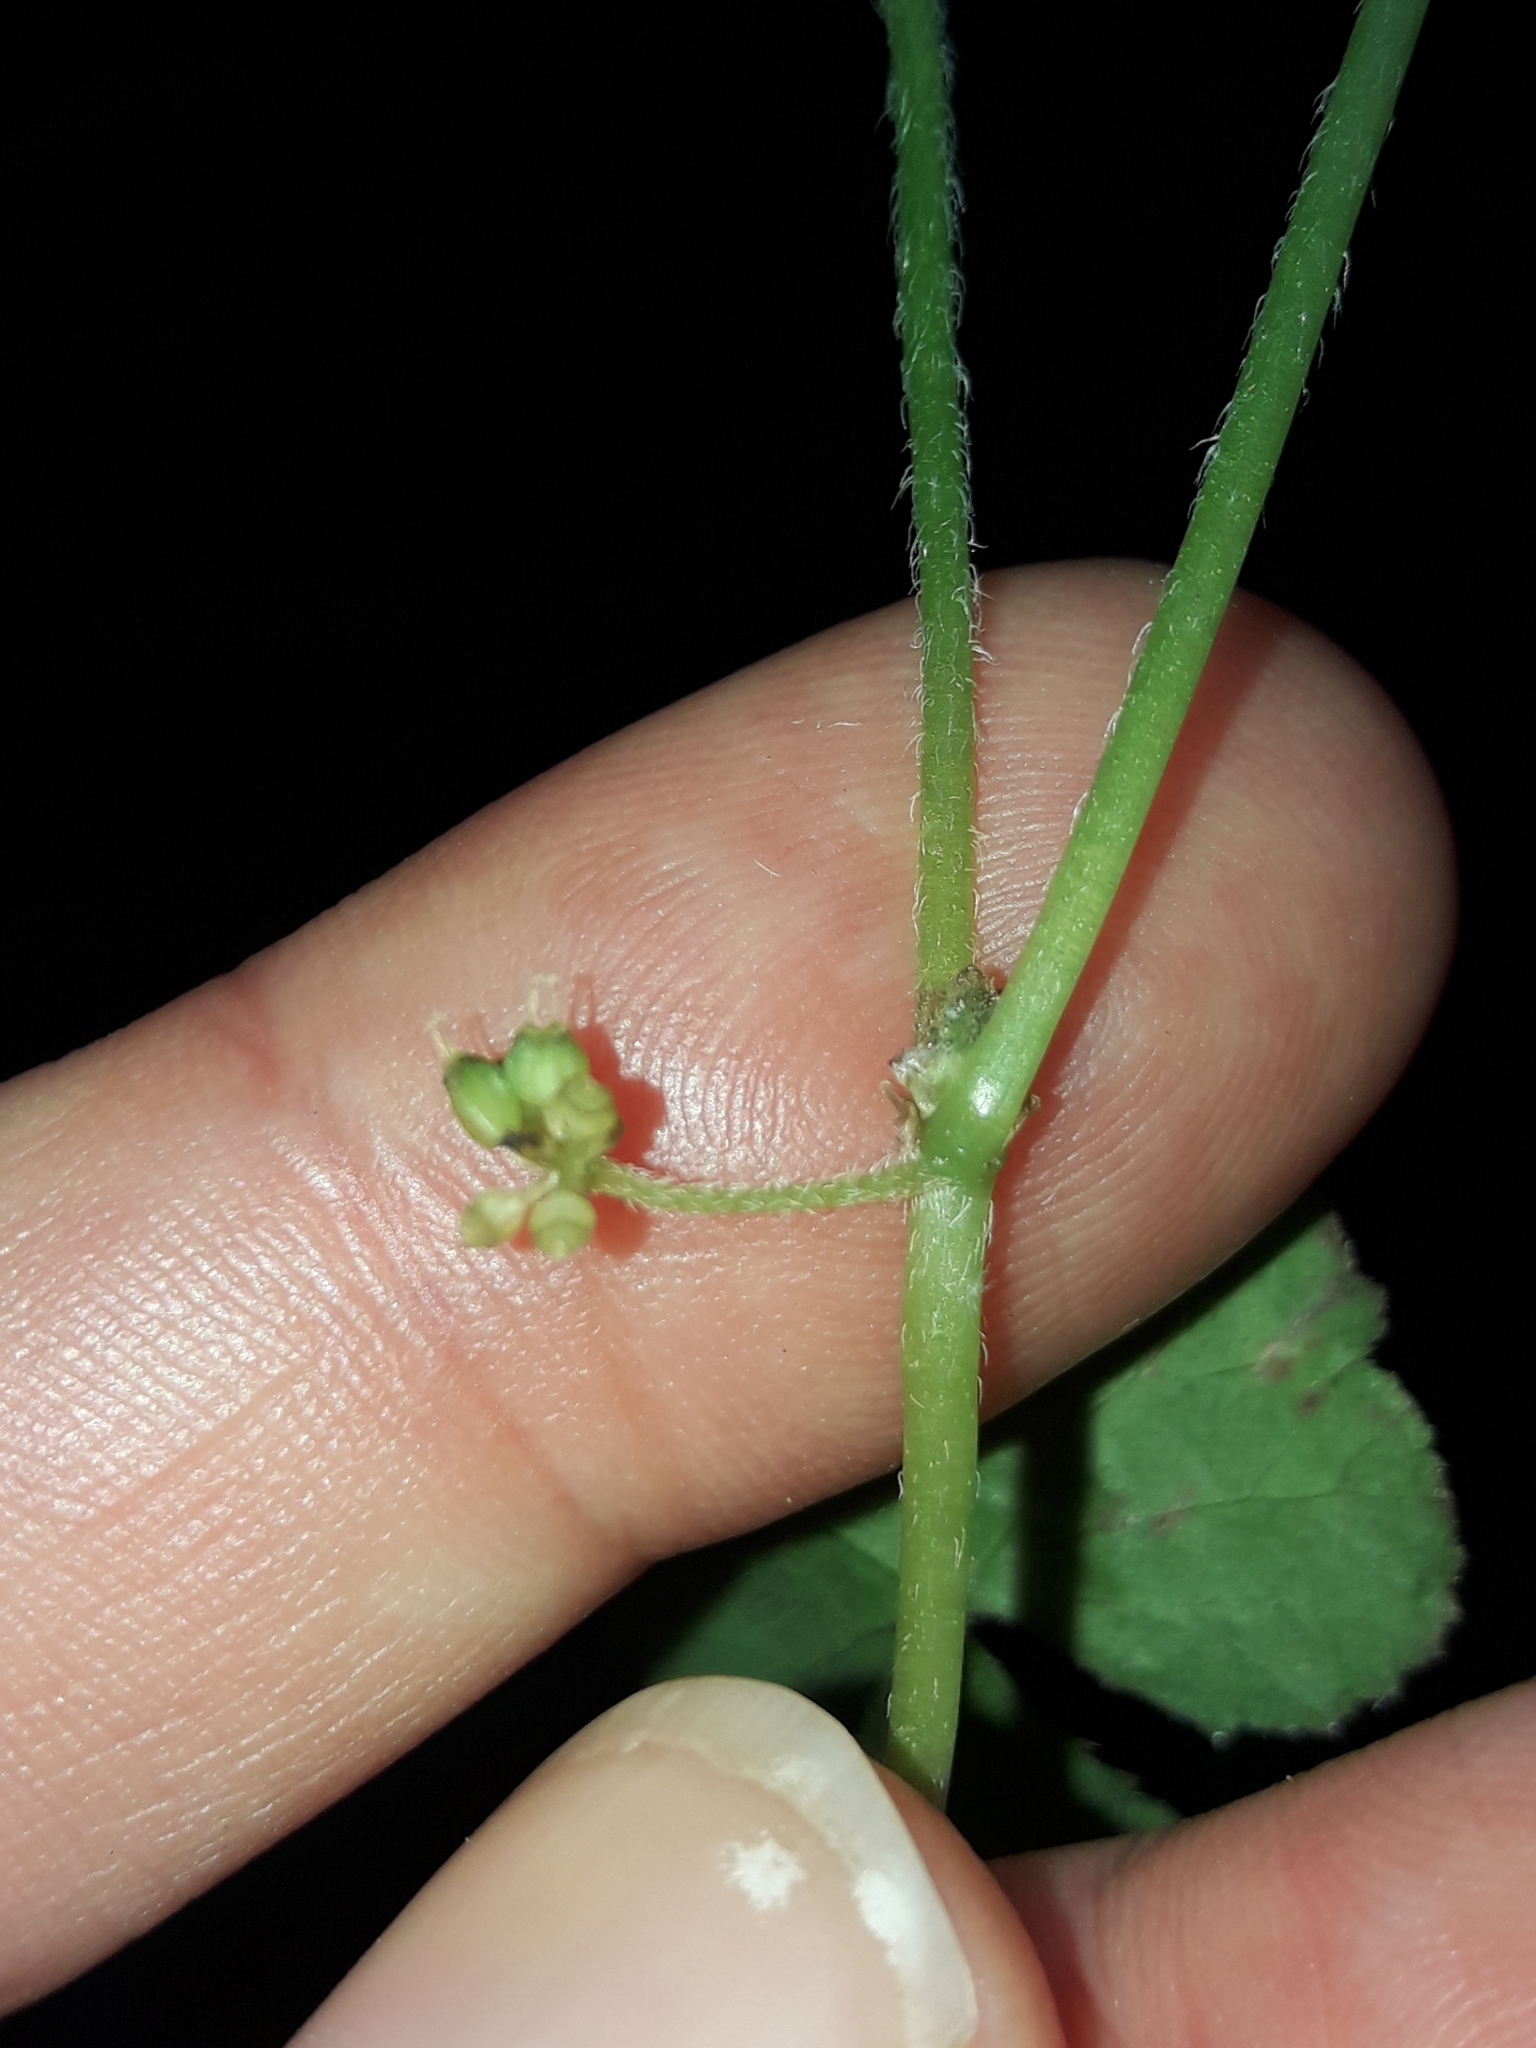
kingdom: Plantae
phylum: Tracheophyta
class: Magnoliopsida
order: Apiales
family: Araliaceae
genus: Hydrocotyle
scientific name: Hydrocotyle novae-zeelandiae
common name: New zealand pennywort
